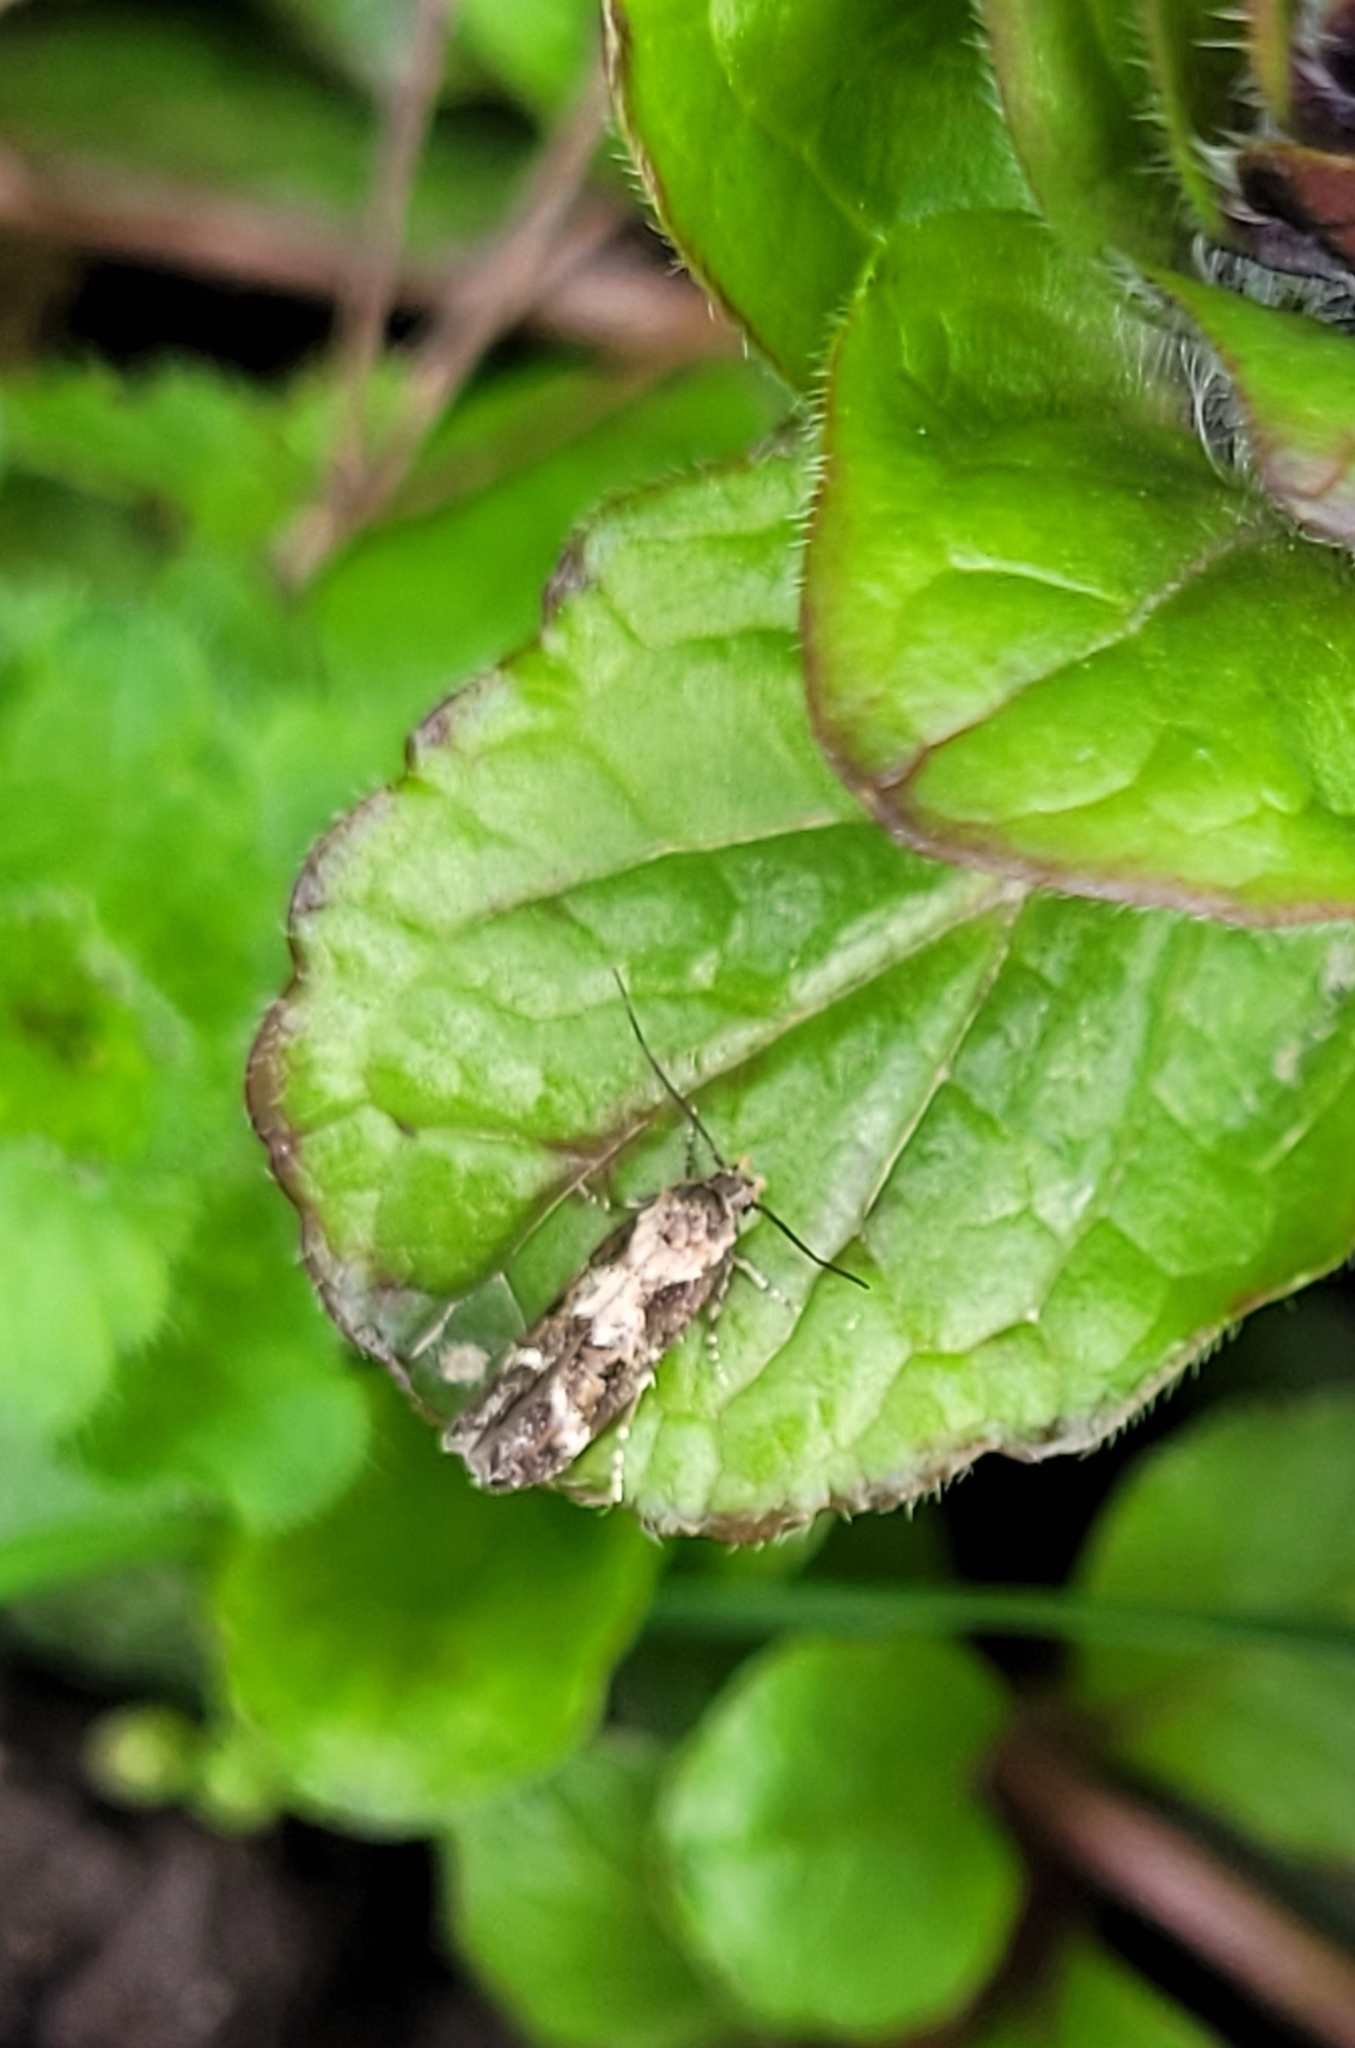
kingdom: Animalia
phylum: Arthropoda
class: Insecta
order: Lepidoptera
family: Momphidae
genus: Mompha
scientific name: Mompha subbistrigella
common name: Garden cosmet
